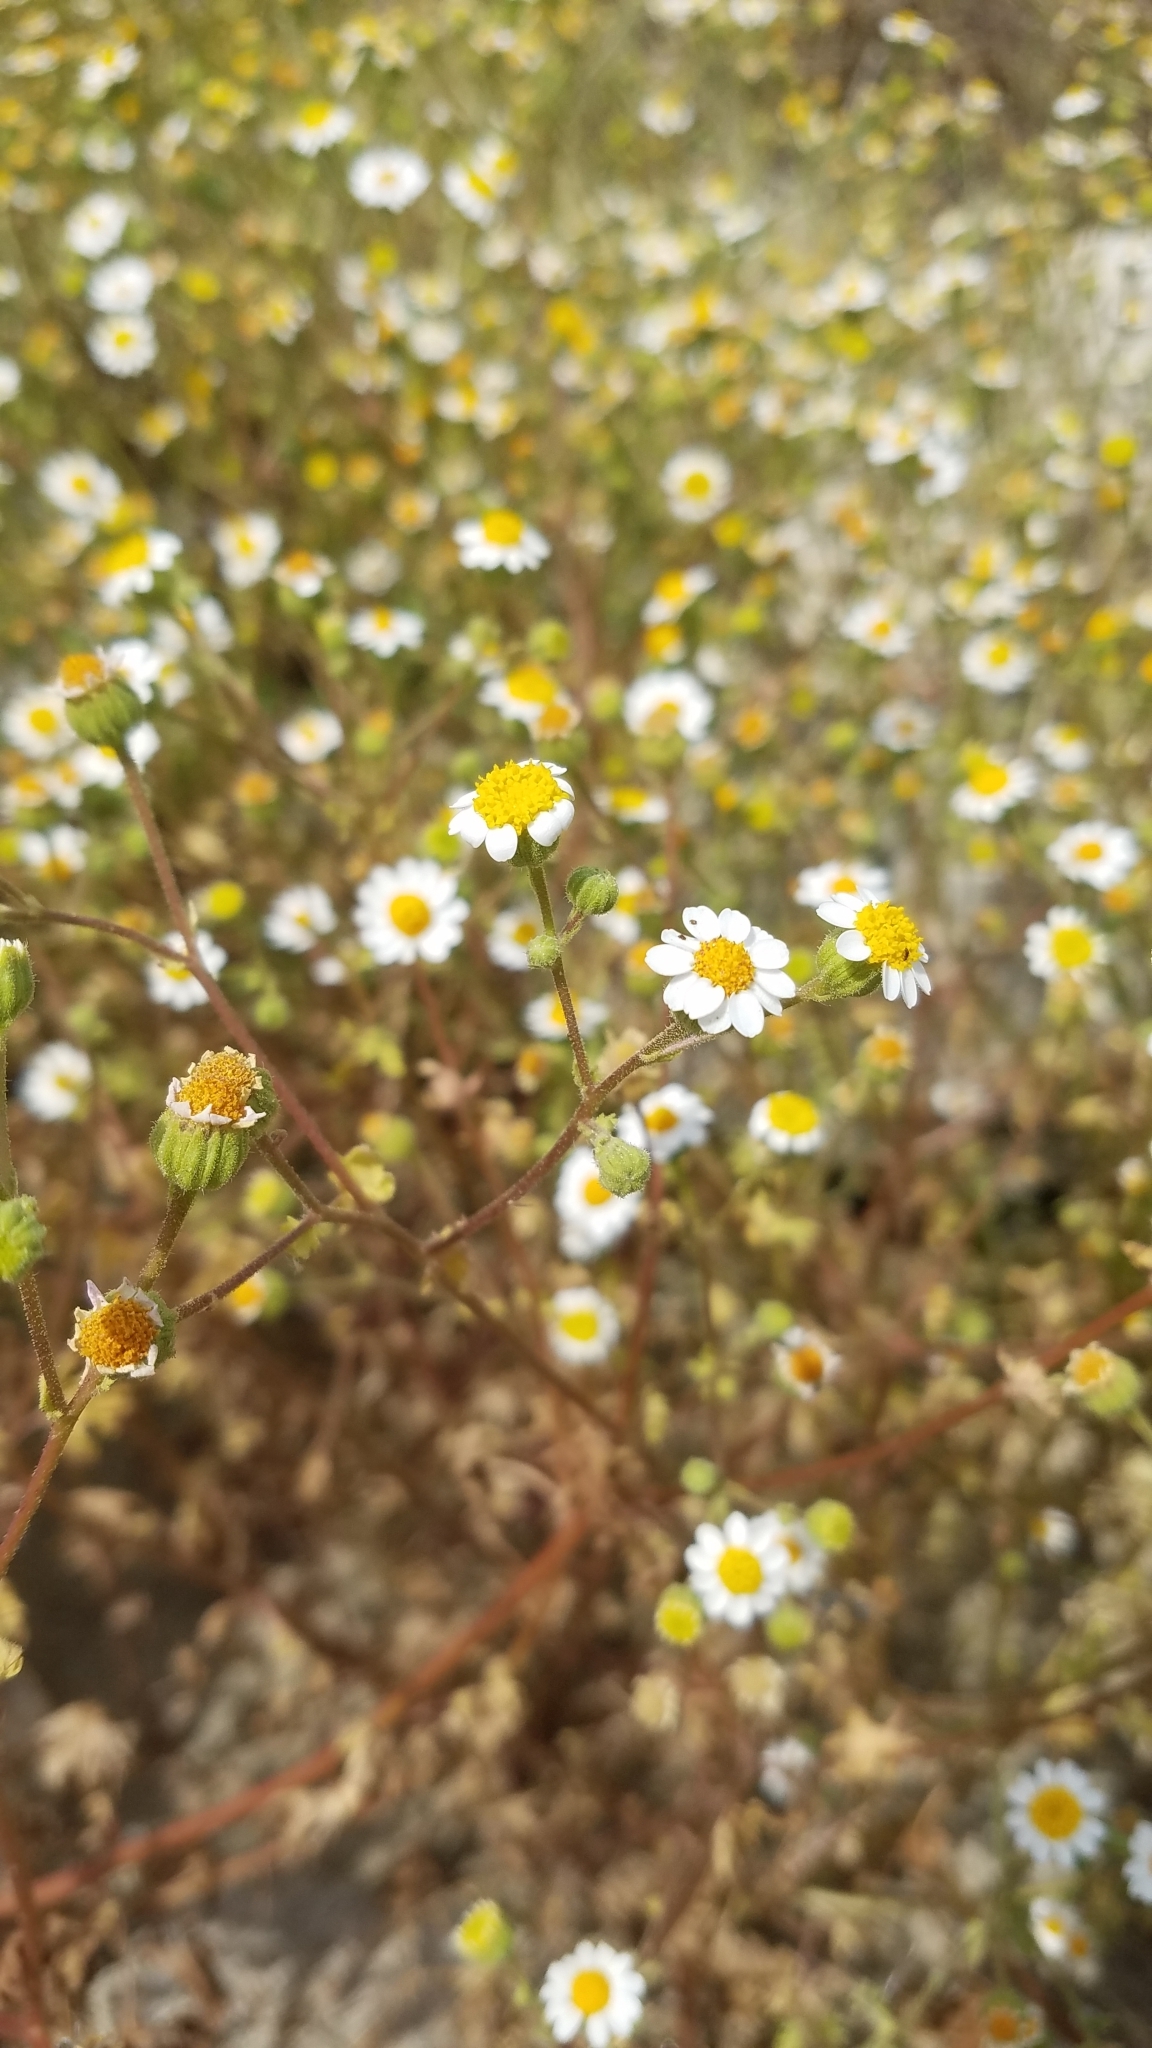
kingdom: Plantae
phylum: Tracheophyta
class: Magnoliopsida
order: Asterales
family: Asteraceae
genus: Laphamia
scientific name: Laphamia emoryi
